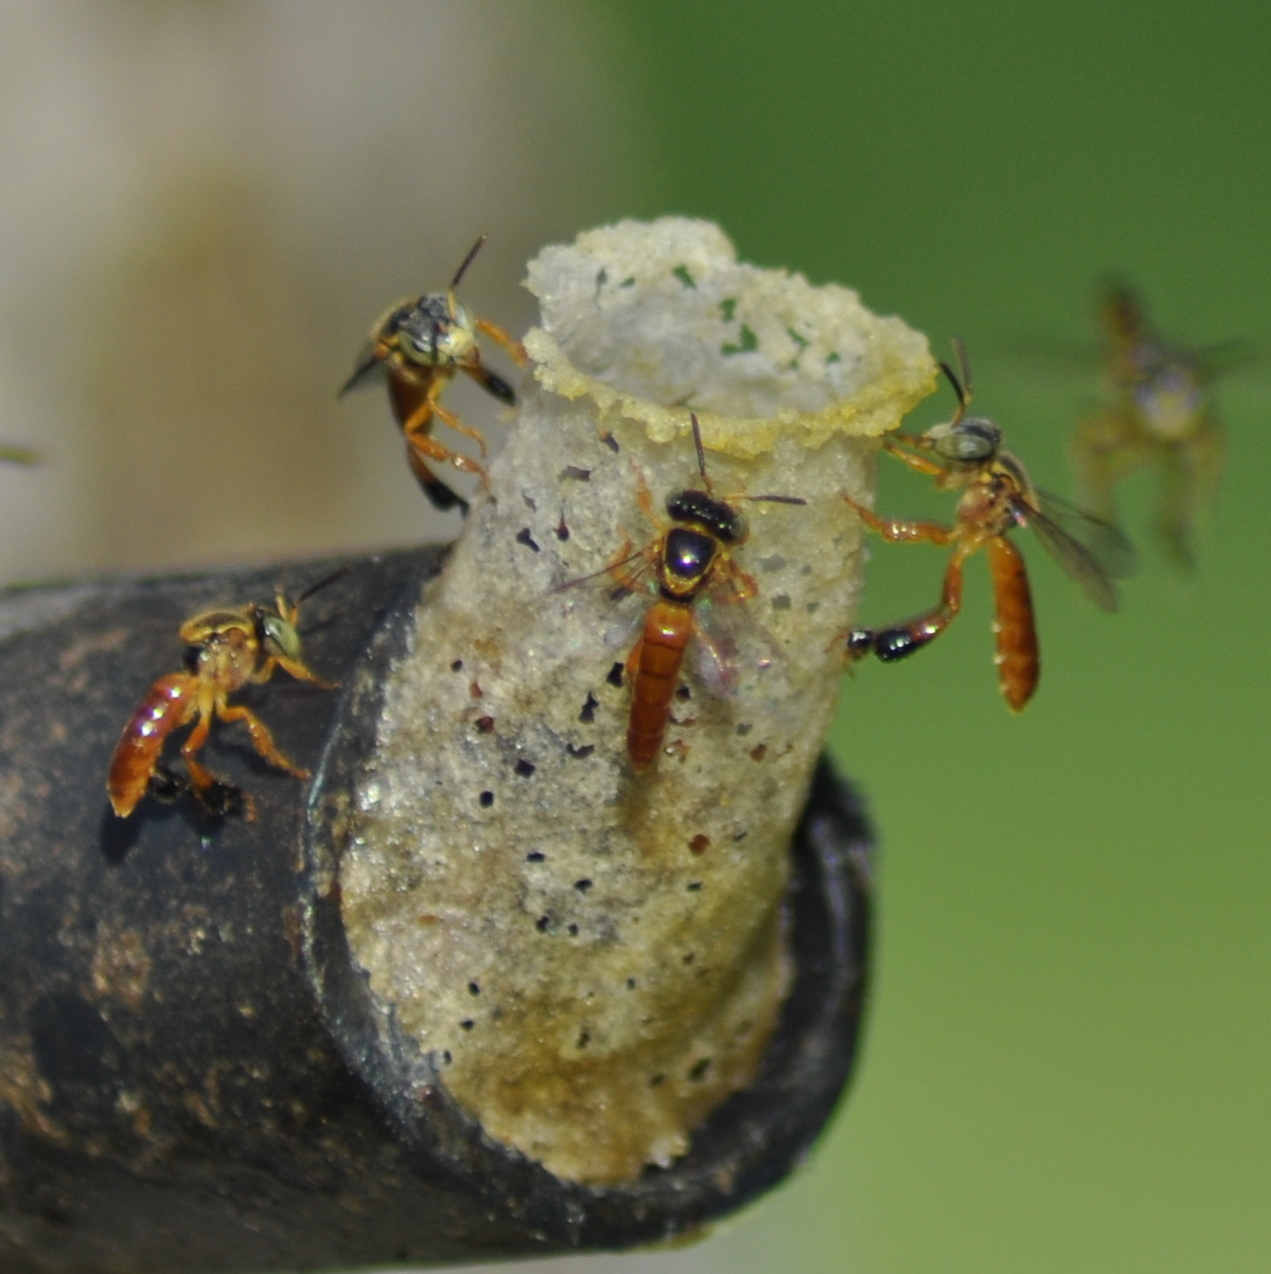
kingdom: Animalia
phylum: Arthropoda
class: Insecta
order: Hymenoptera
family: Apidae
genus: Tetragonisca
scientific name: Tetragonisca fiebrigi
